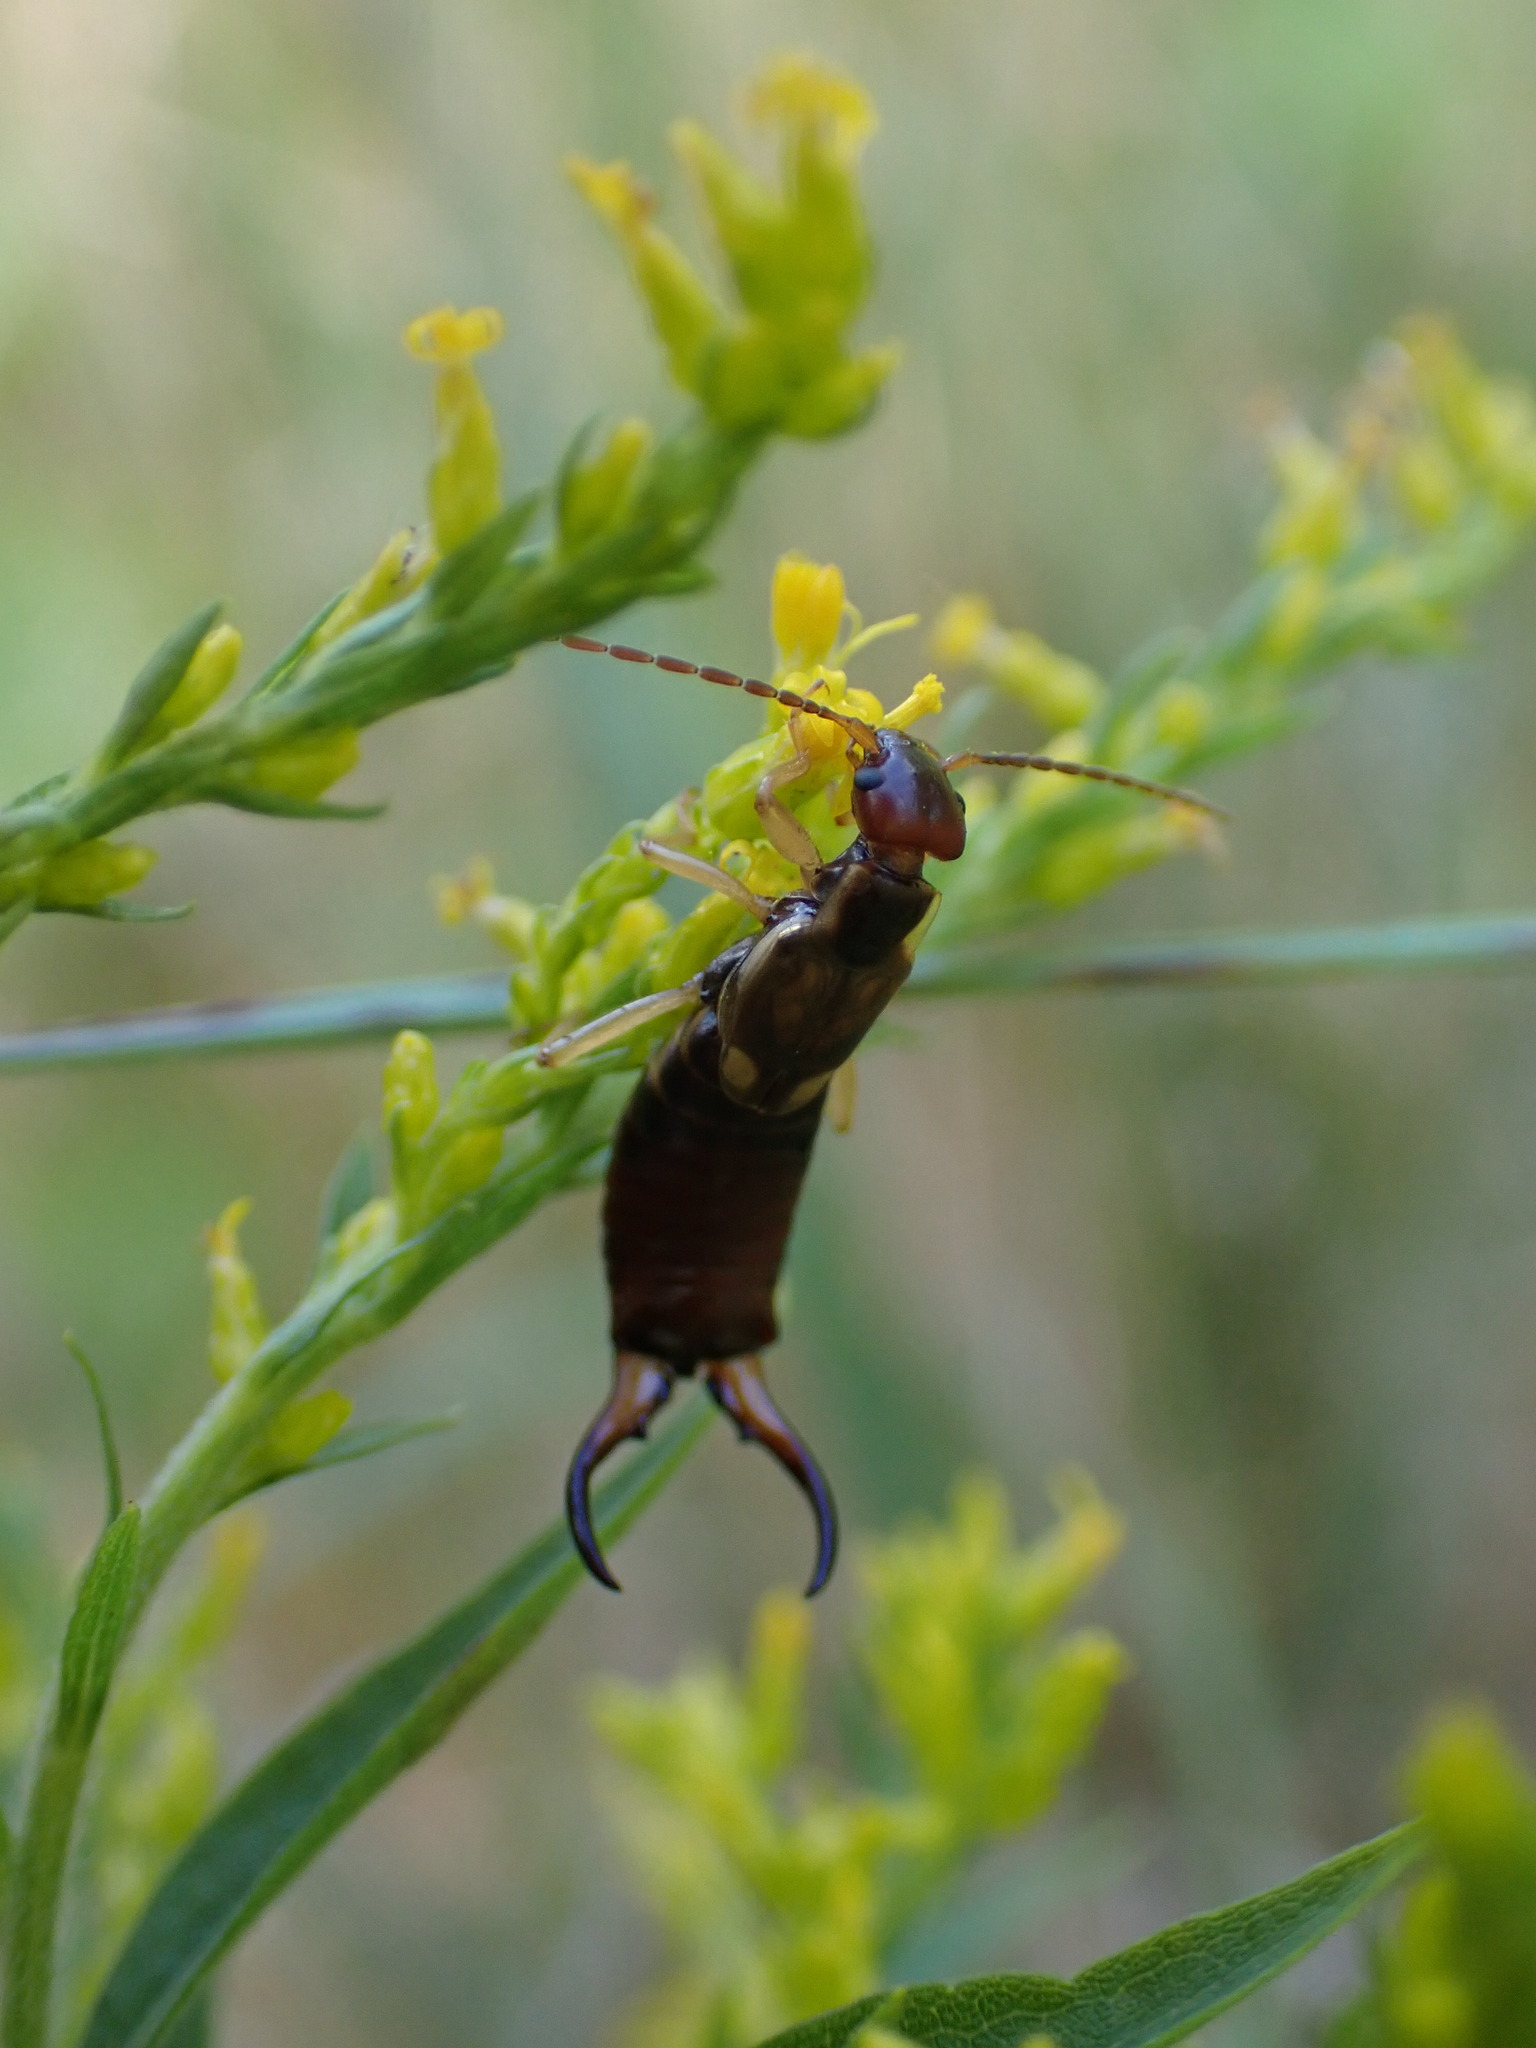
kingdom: Animalia
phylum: Arthropoda
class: Insecta
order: Dermaptera
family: Forficulidae
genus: Forficula
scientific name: Forficula
